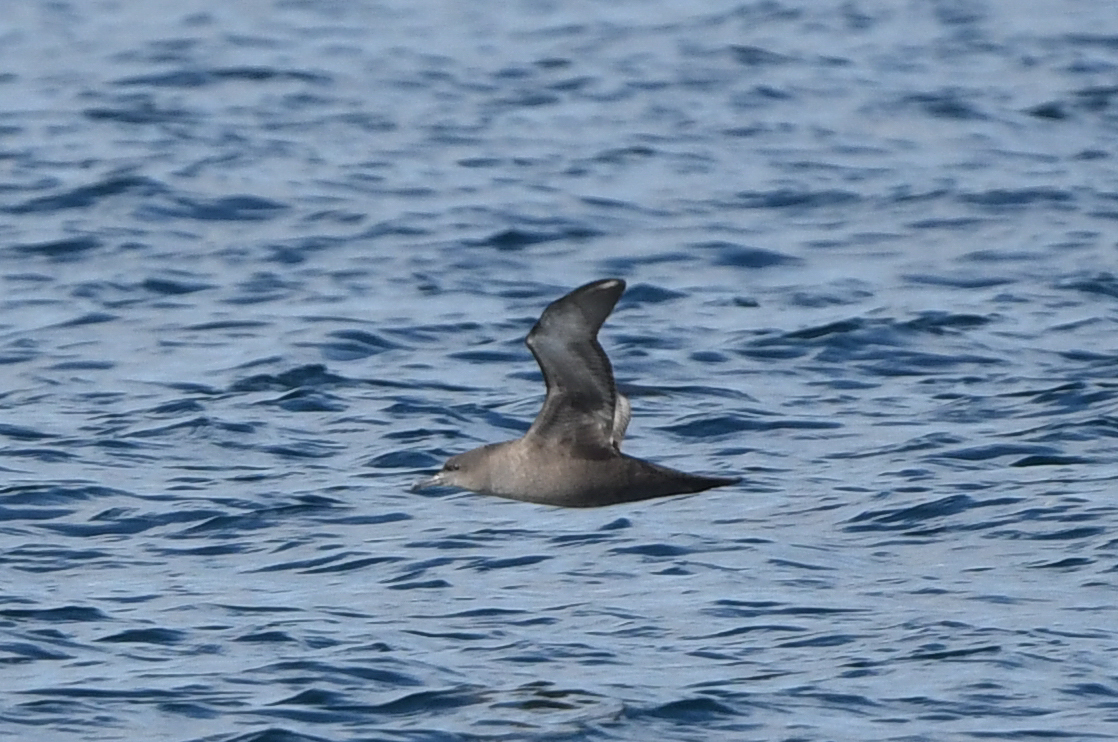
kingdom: Animalia
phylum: Chordata
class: Aves
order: Procellariiformes
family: Procellariidae
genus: Puffinus
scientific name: Puffinus griseus
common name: Sooty shearwater
